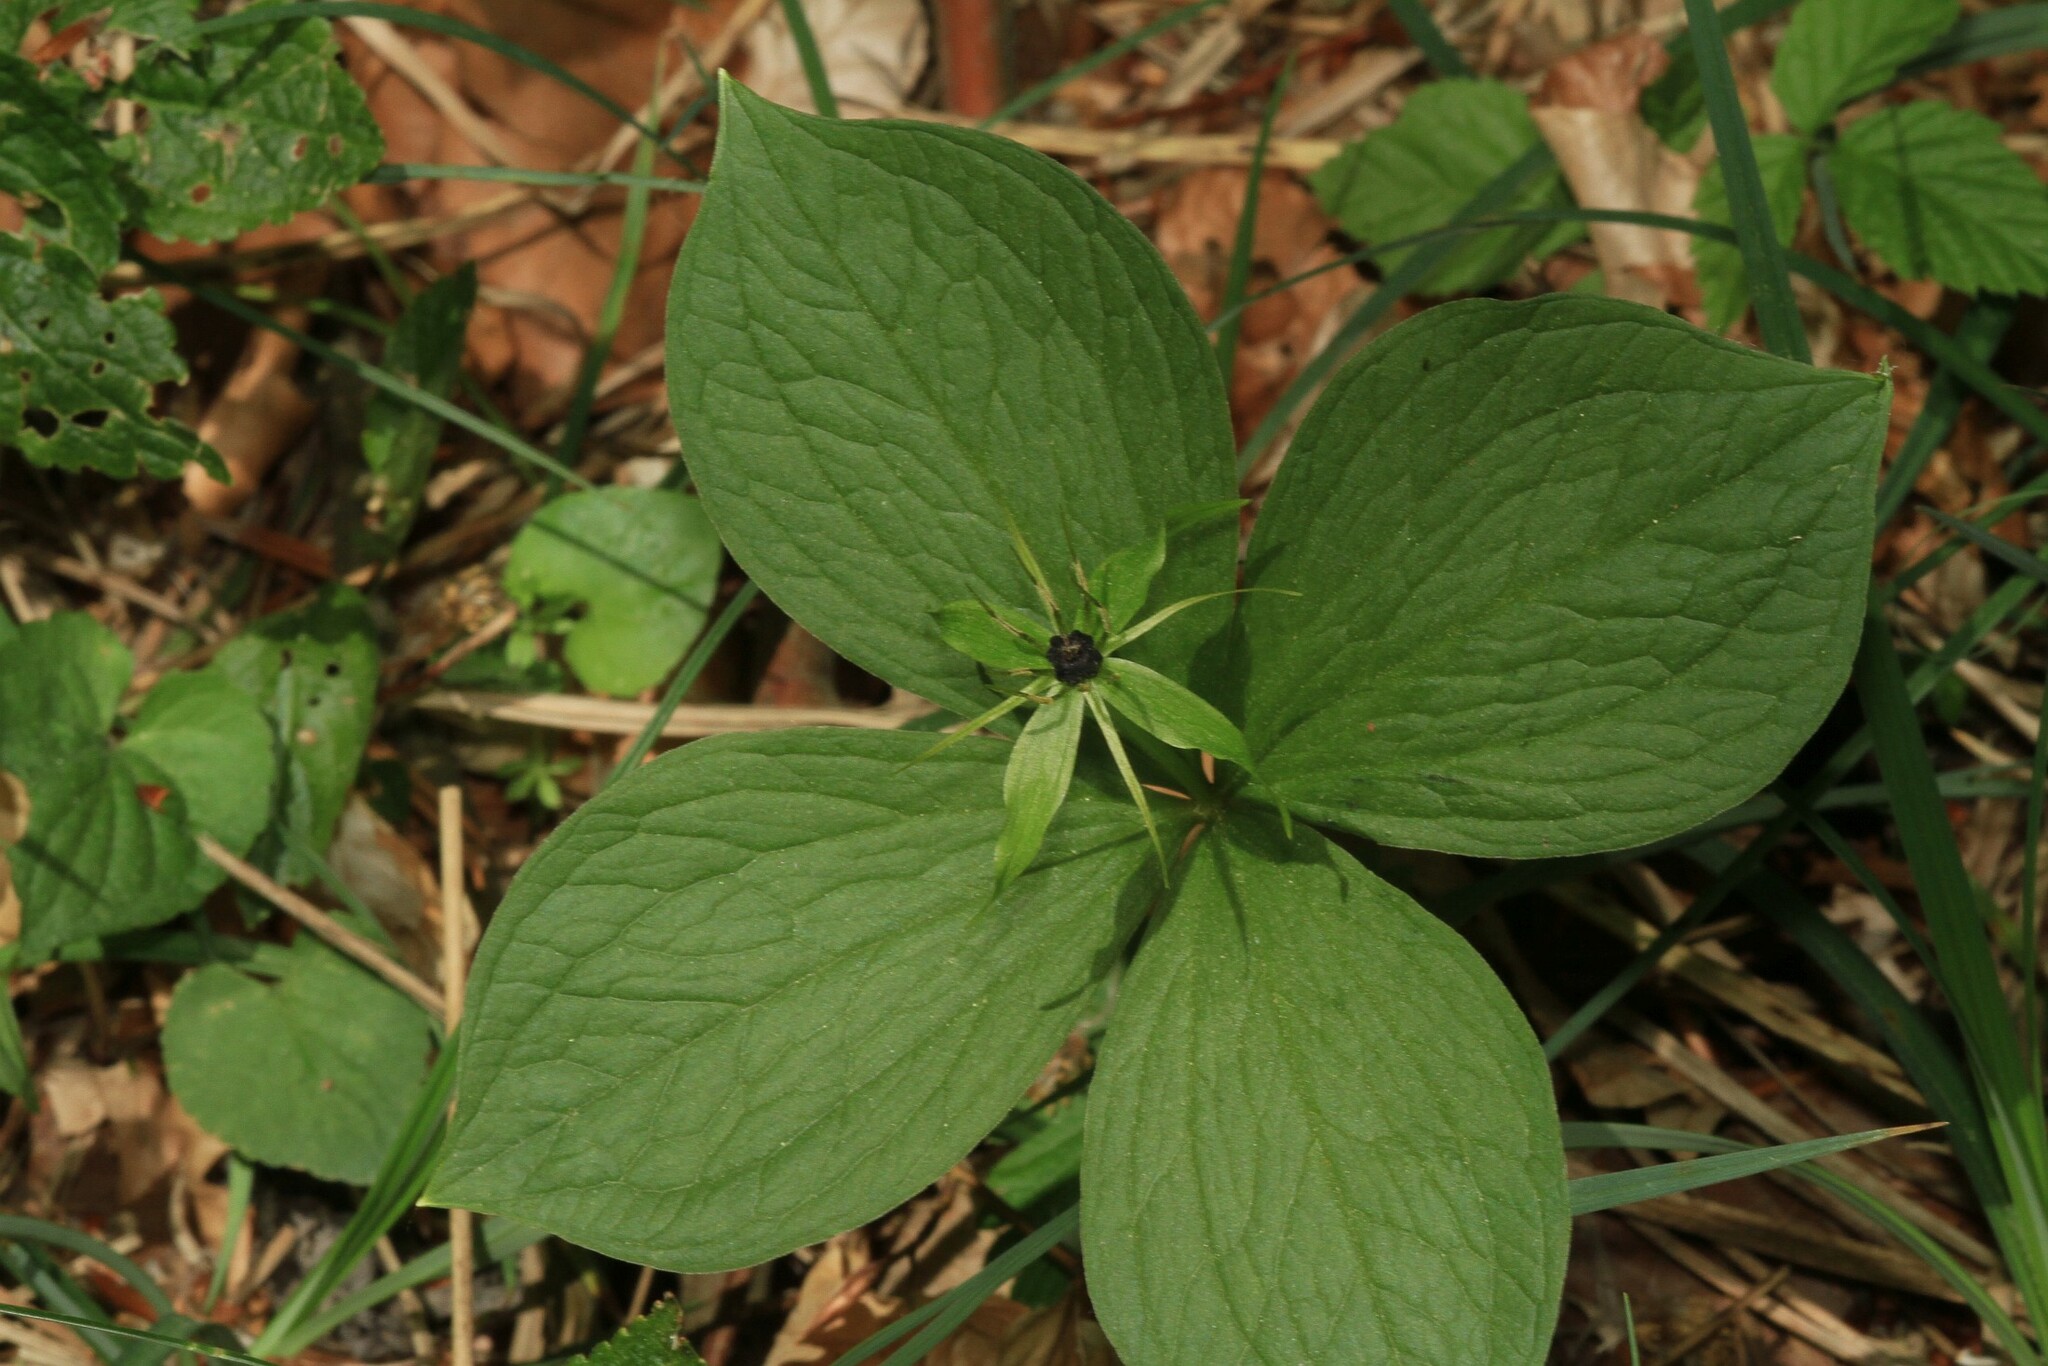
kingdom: Plantae
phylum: Tracheophyta
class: Liliopsida
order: Liliales
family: Melanthiaceae
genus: Paris
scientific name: Paris quadrifolia
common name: Herb-paris
